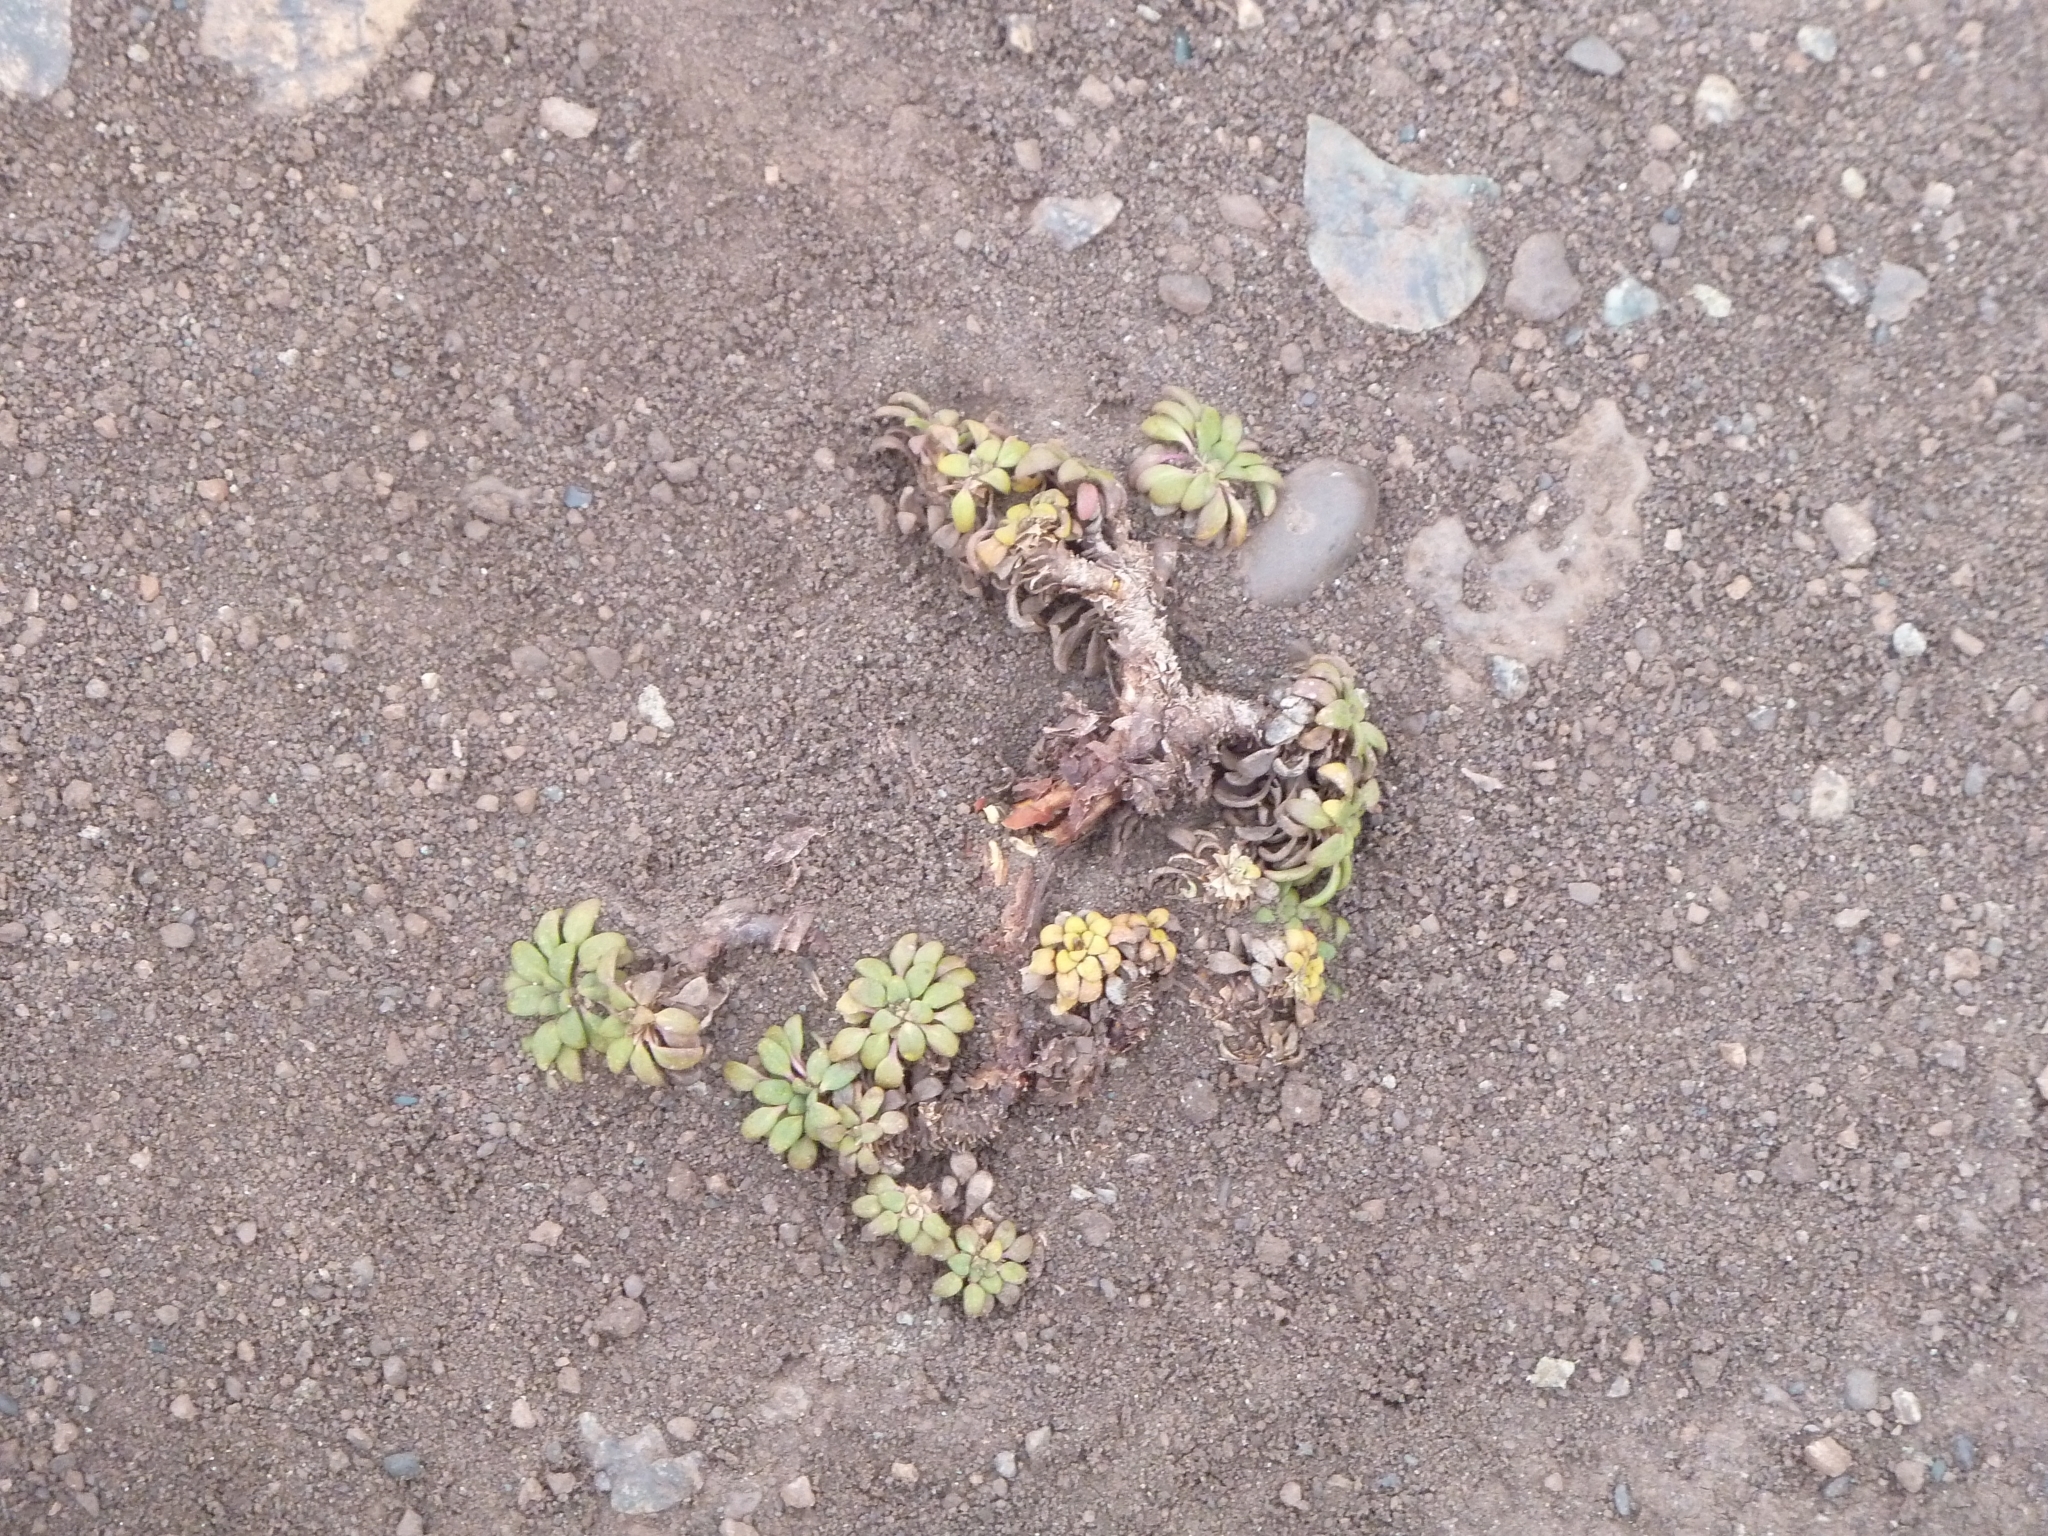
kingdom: Plantae
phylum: Tracheophyta
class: Magnoliopsida
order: Gentianales
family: Rubiaceae
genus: Oreopolus
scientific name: Oreopolus glacialis
